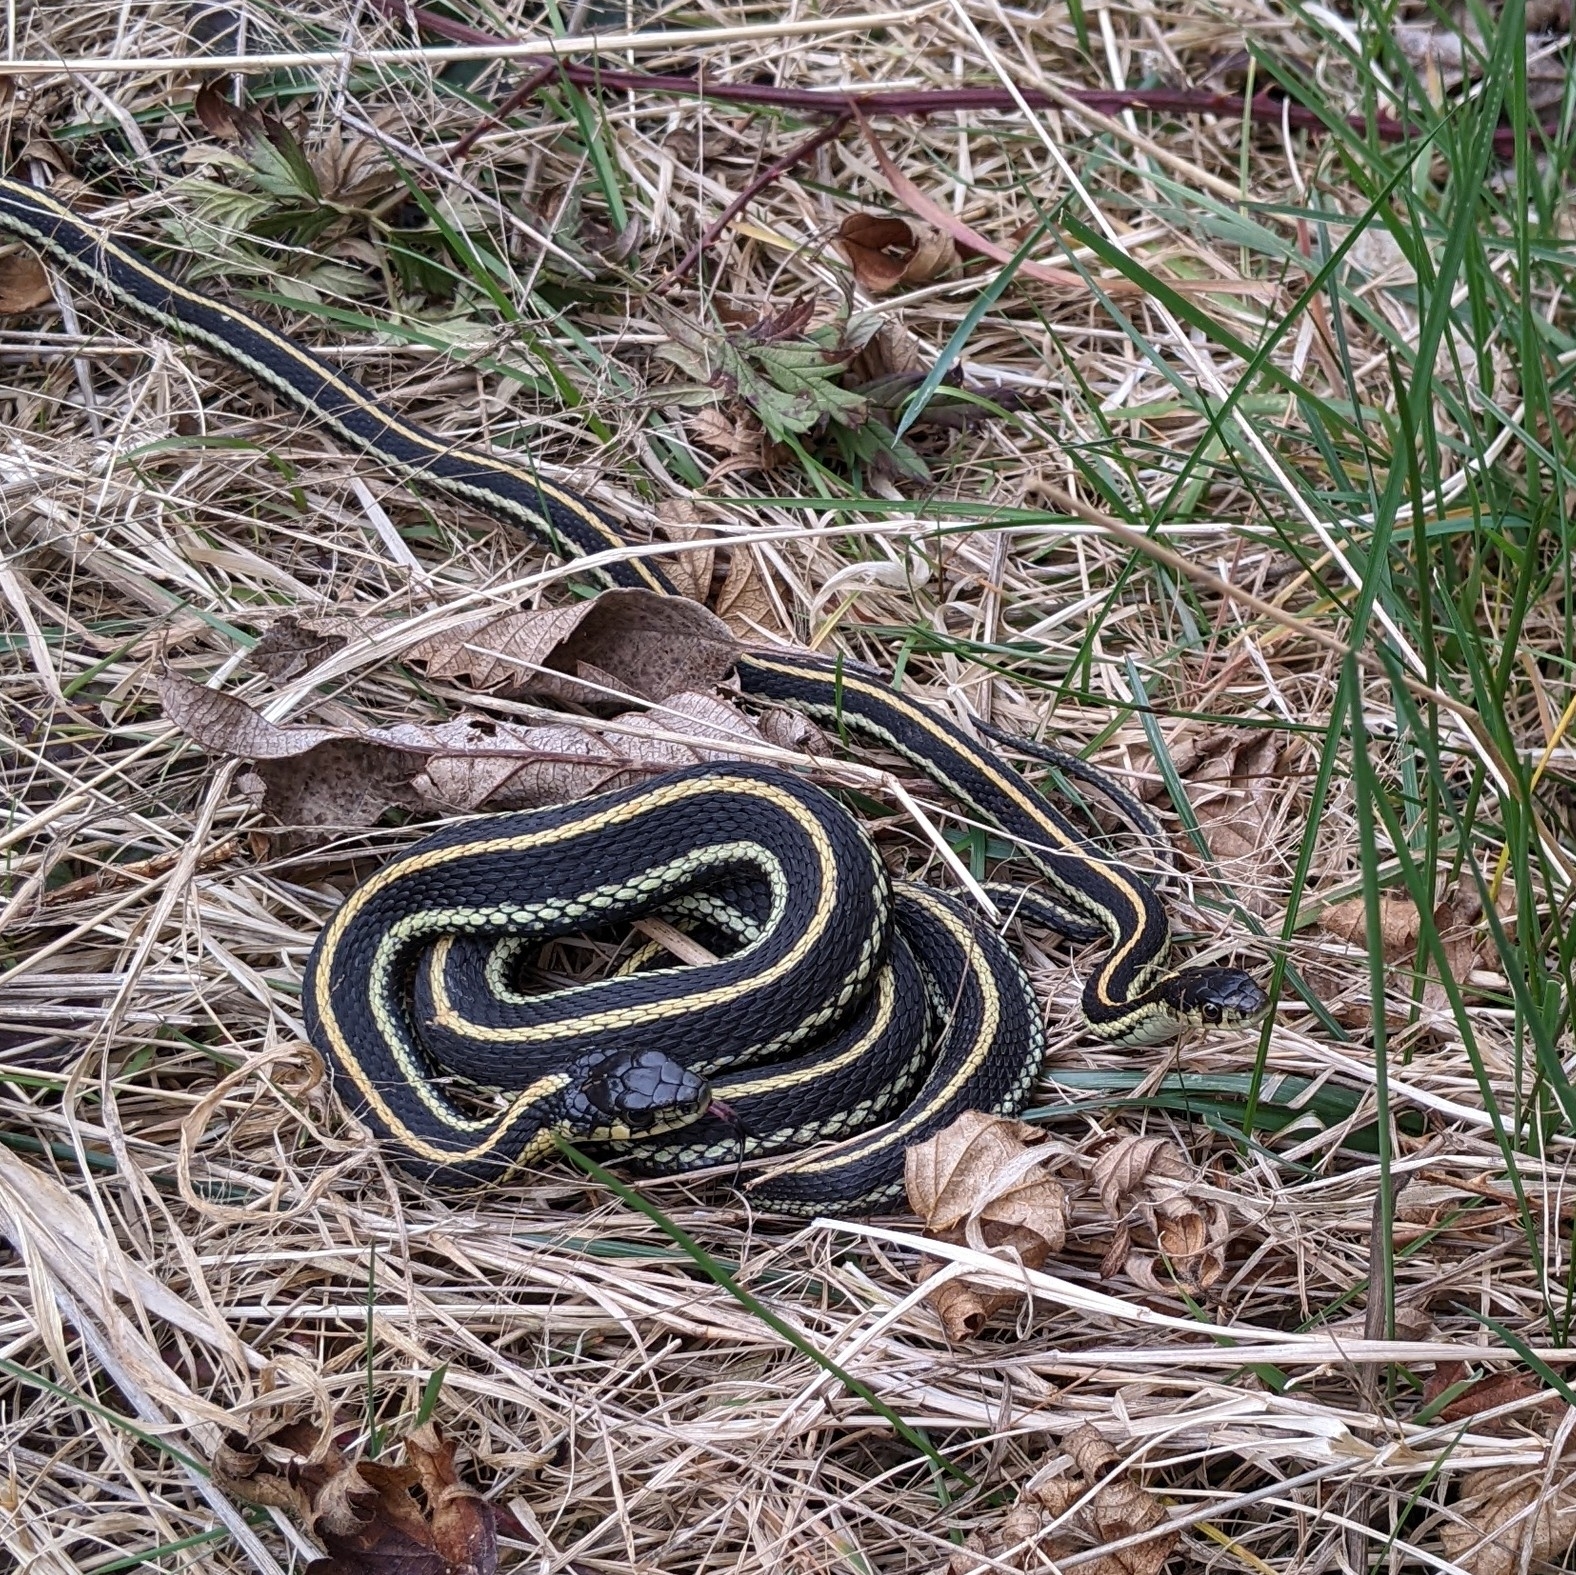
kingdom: Animalia
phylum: Chordata
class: Squamata
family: Colubridae
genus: Thamnophis
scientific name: Thamnophis sirtalis
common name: Common garter snake
